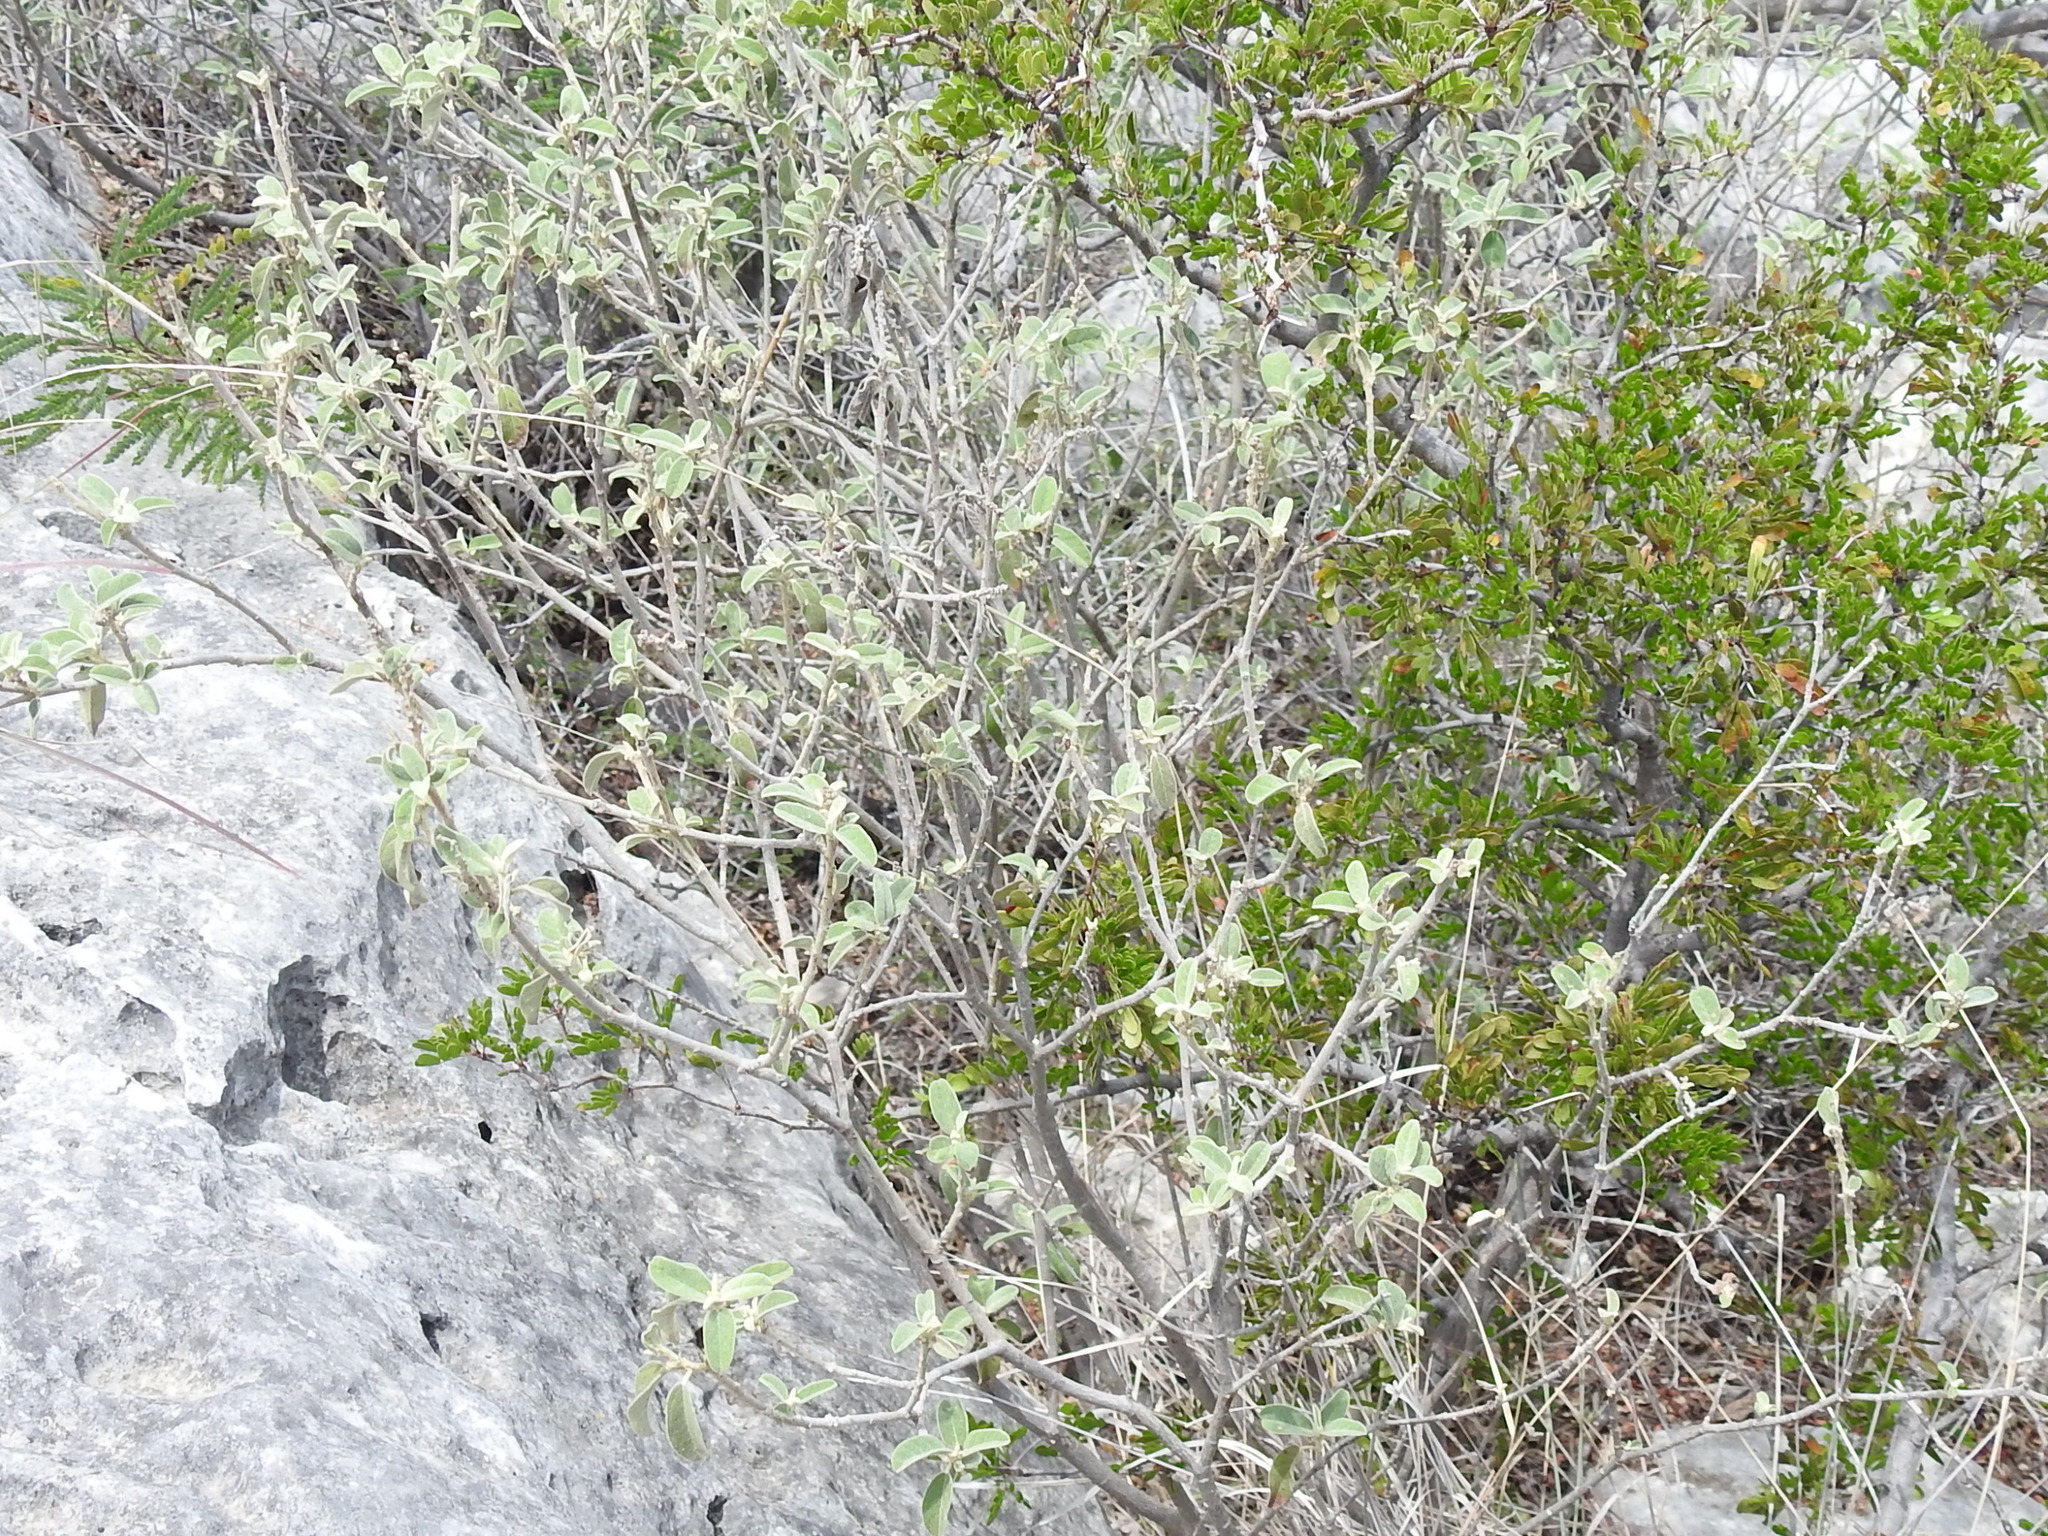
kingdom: Plantae
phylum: Tracheophyta
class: Magnoliopsida
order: Malpighiales
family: Euphorbiaceae
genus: Croton
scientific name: Croton incanus
